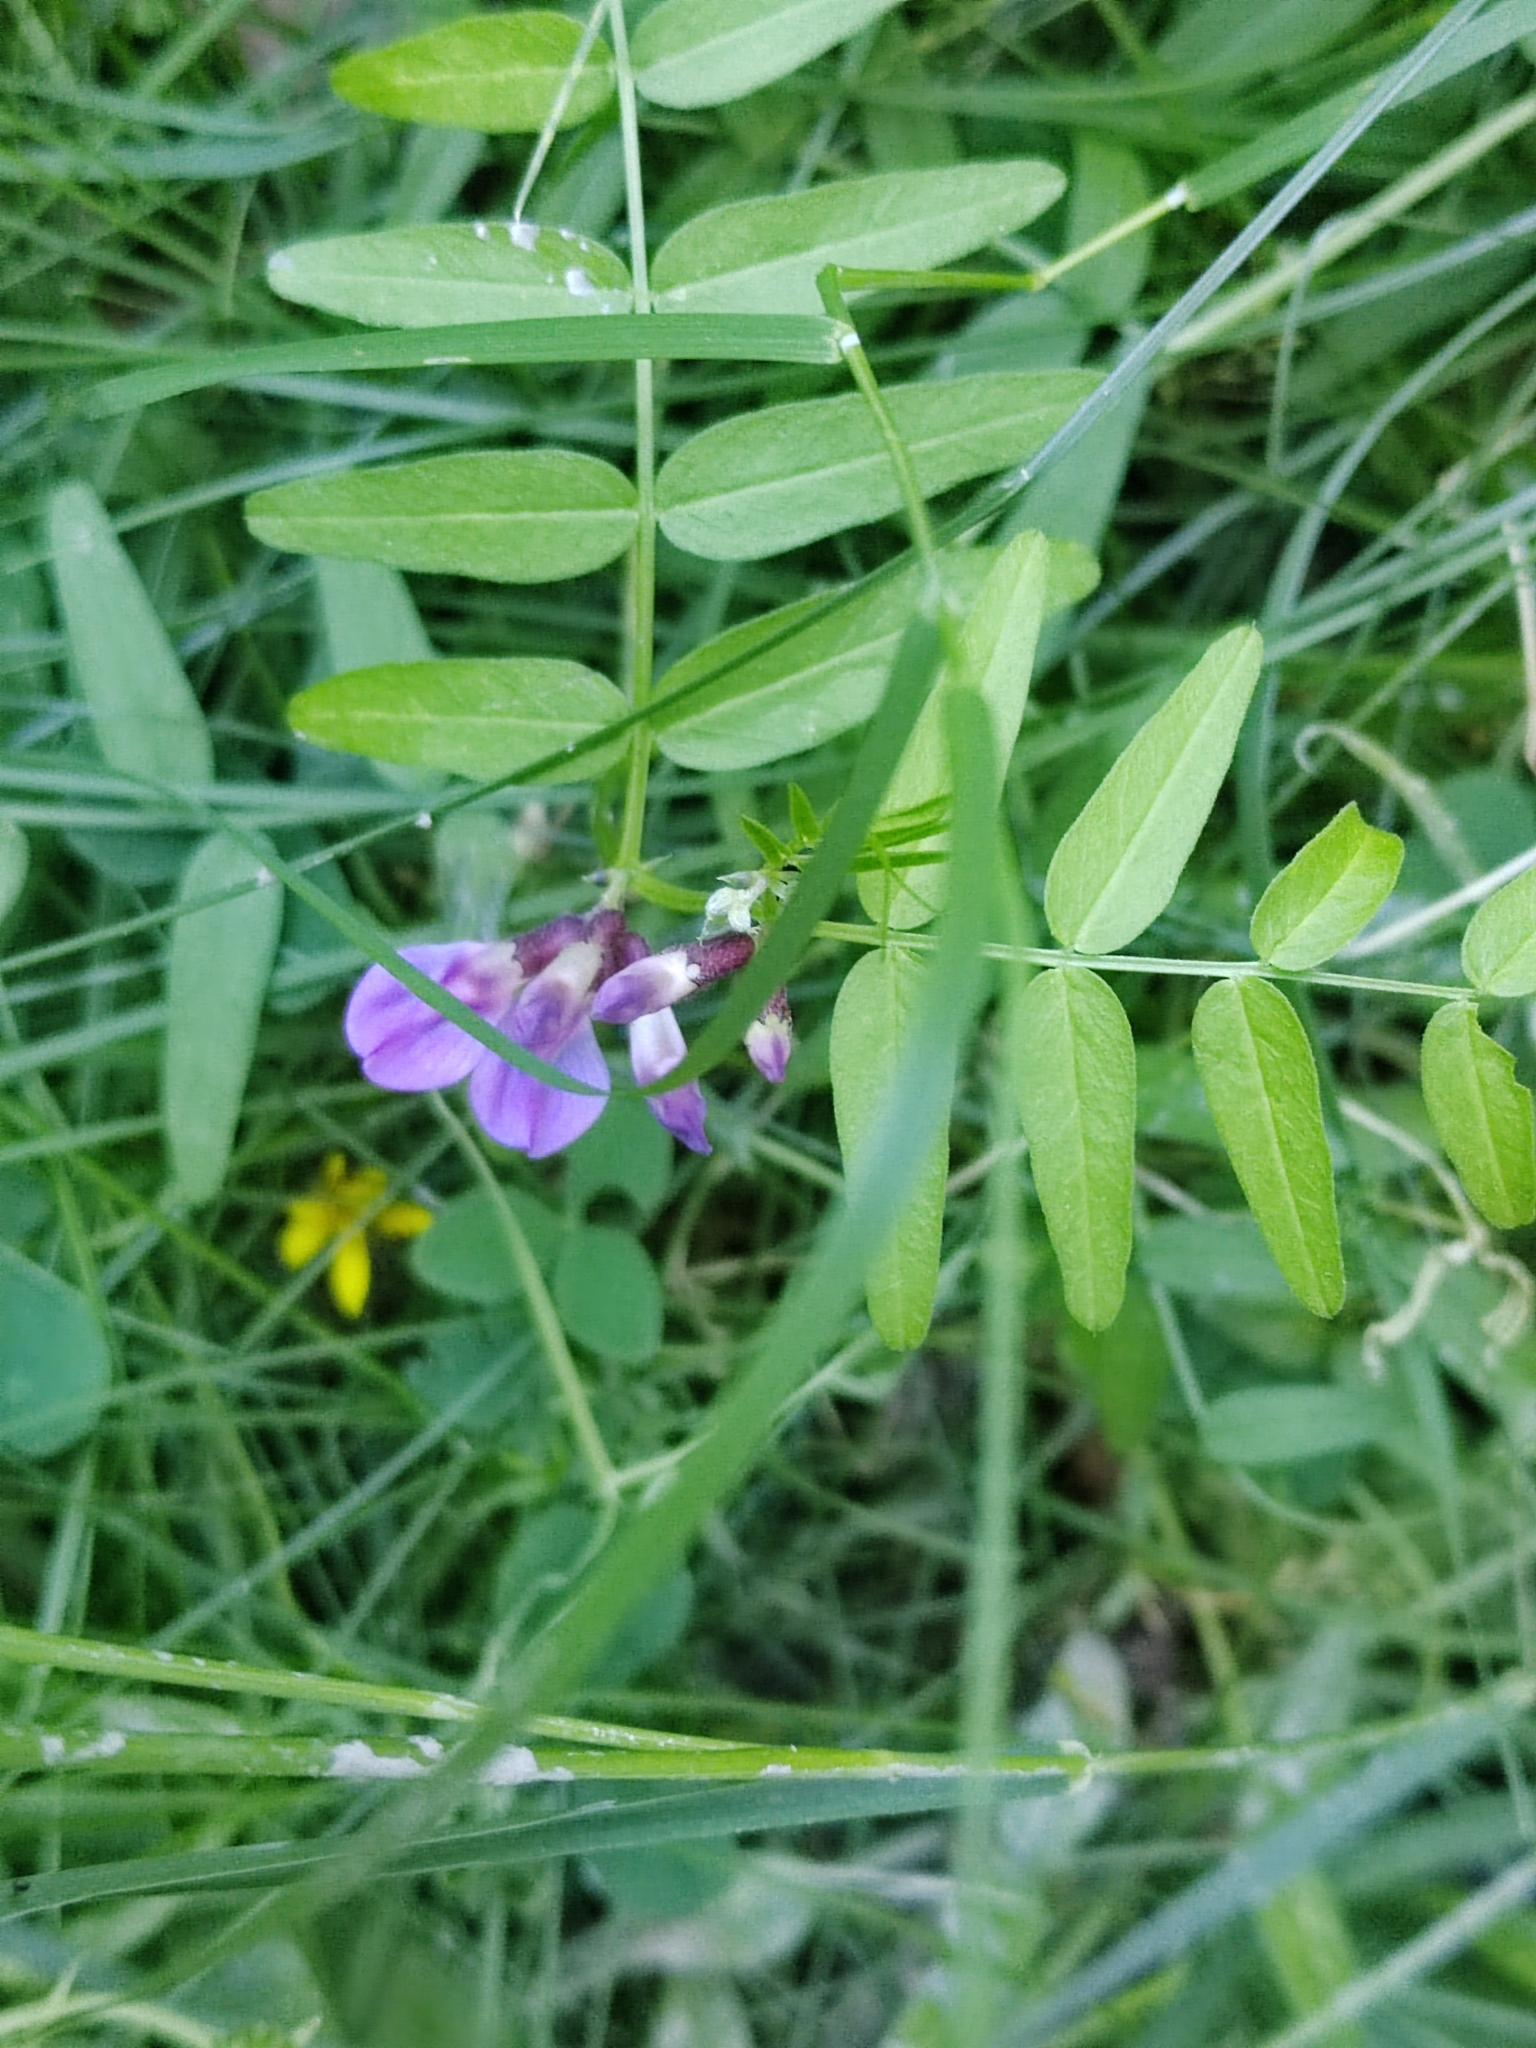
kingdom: Plantae
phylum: Tracheophyta
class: Magnoliopsida
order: Fabales
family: Fabaceae
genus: Vicia
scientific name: Vicia sepium
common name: Bush vetch
